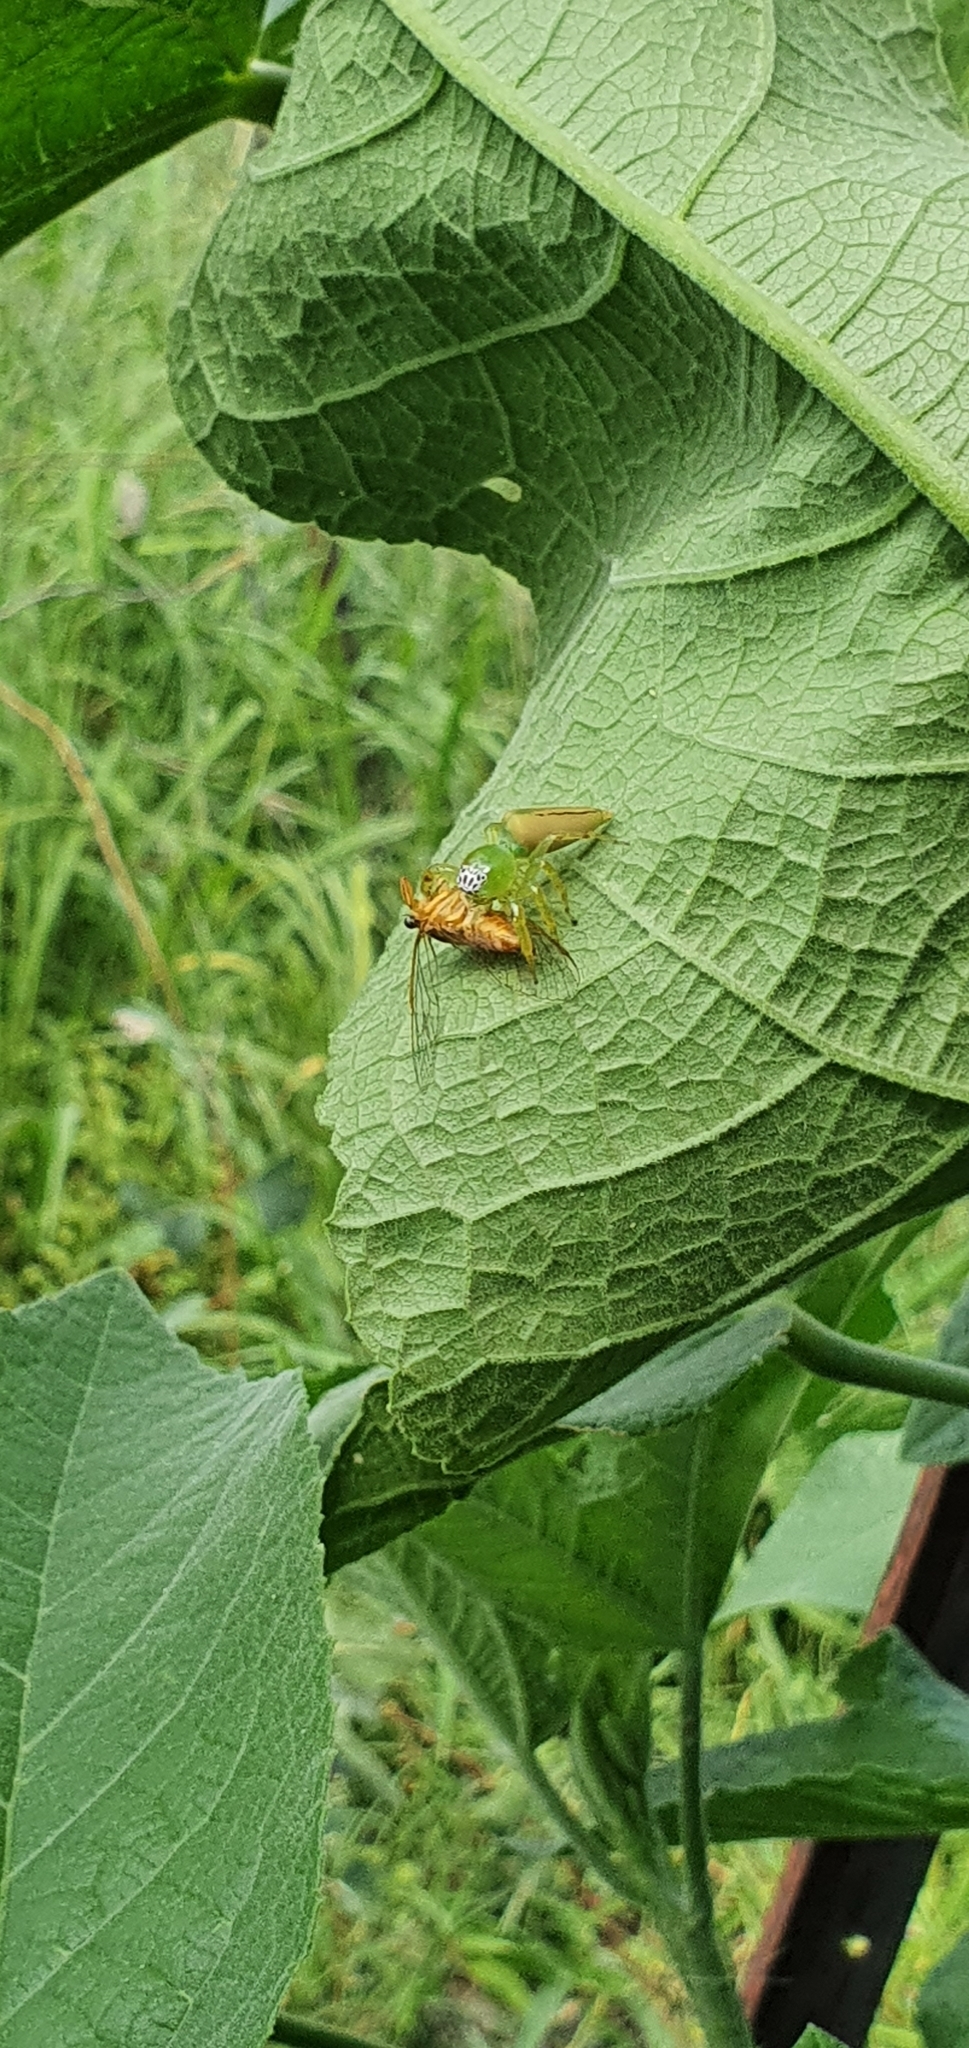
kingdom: Animalia
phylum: Arthropoda
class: Arachnida
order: Araneae
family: Salticidae
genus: Mopsus
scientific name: Mopsus mormon
